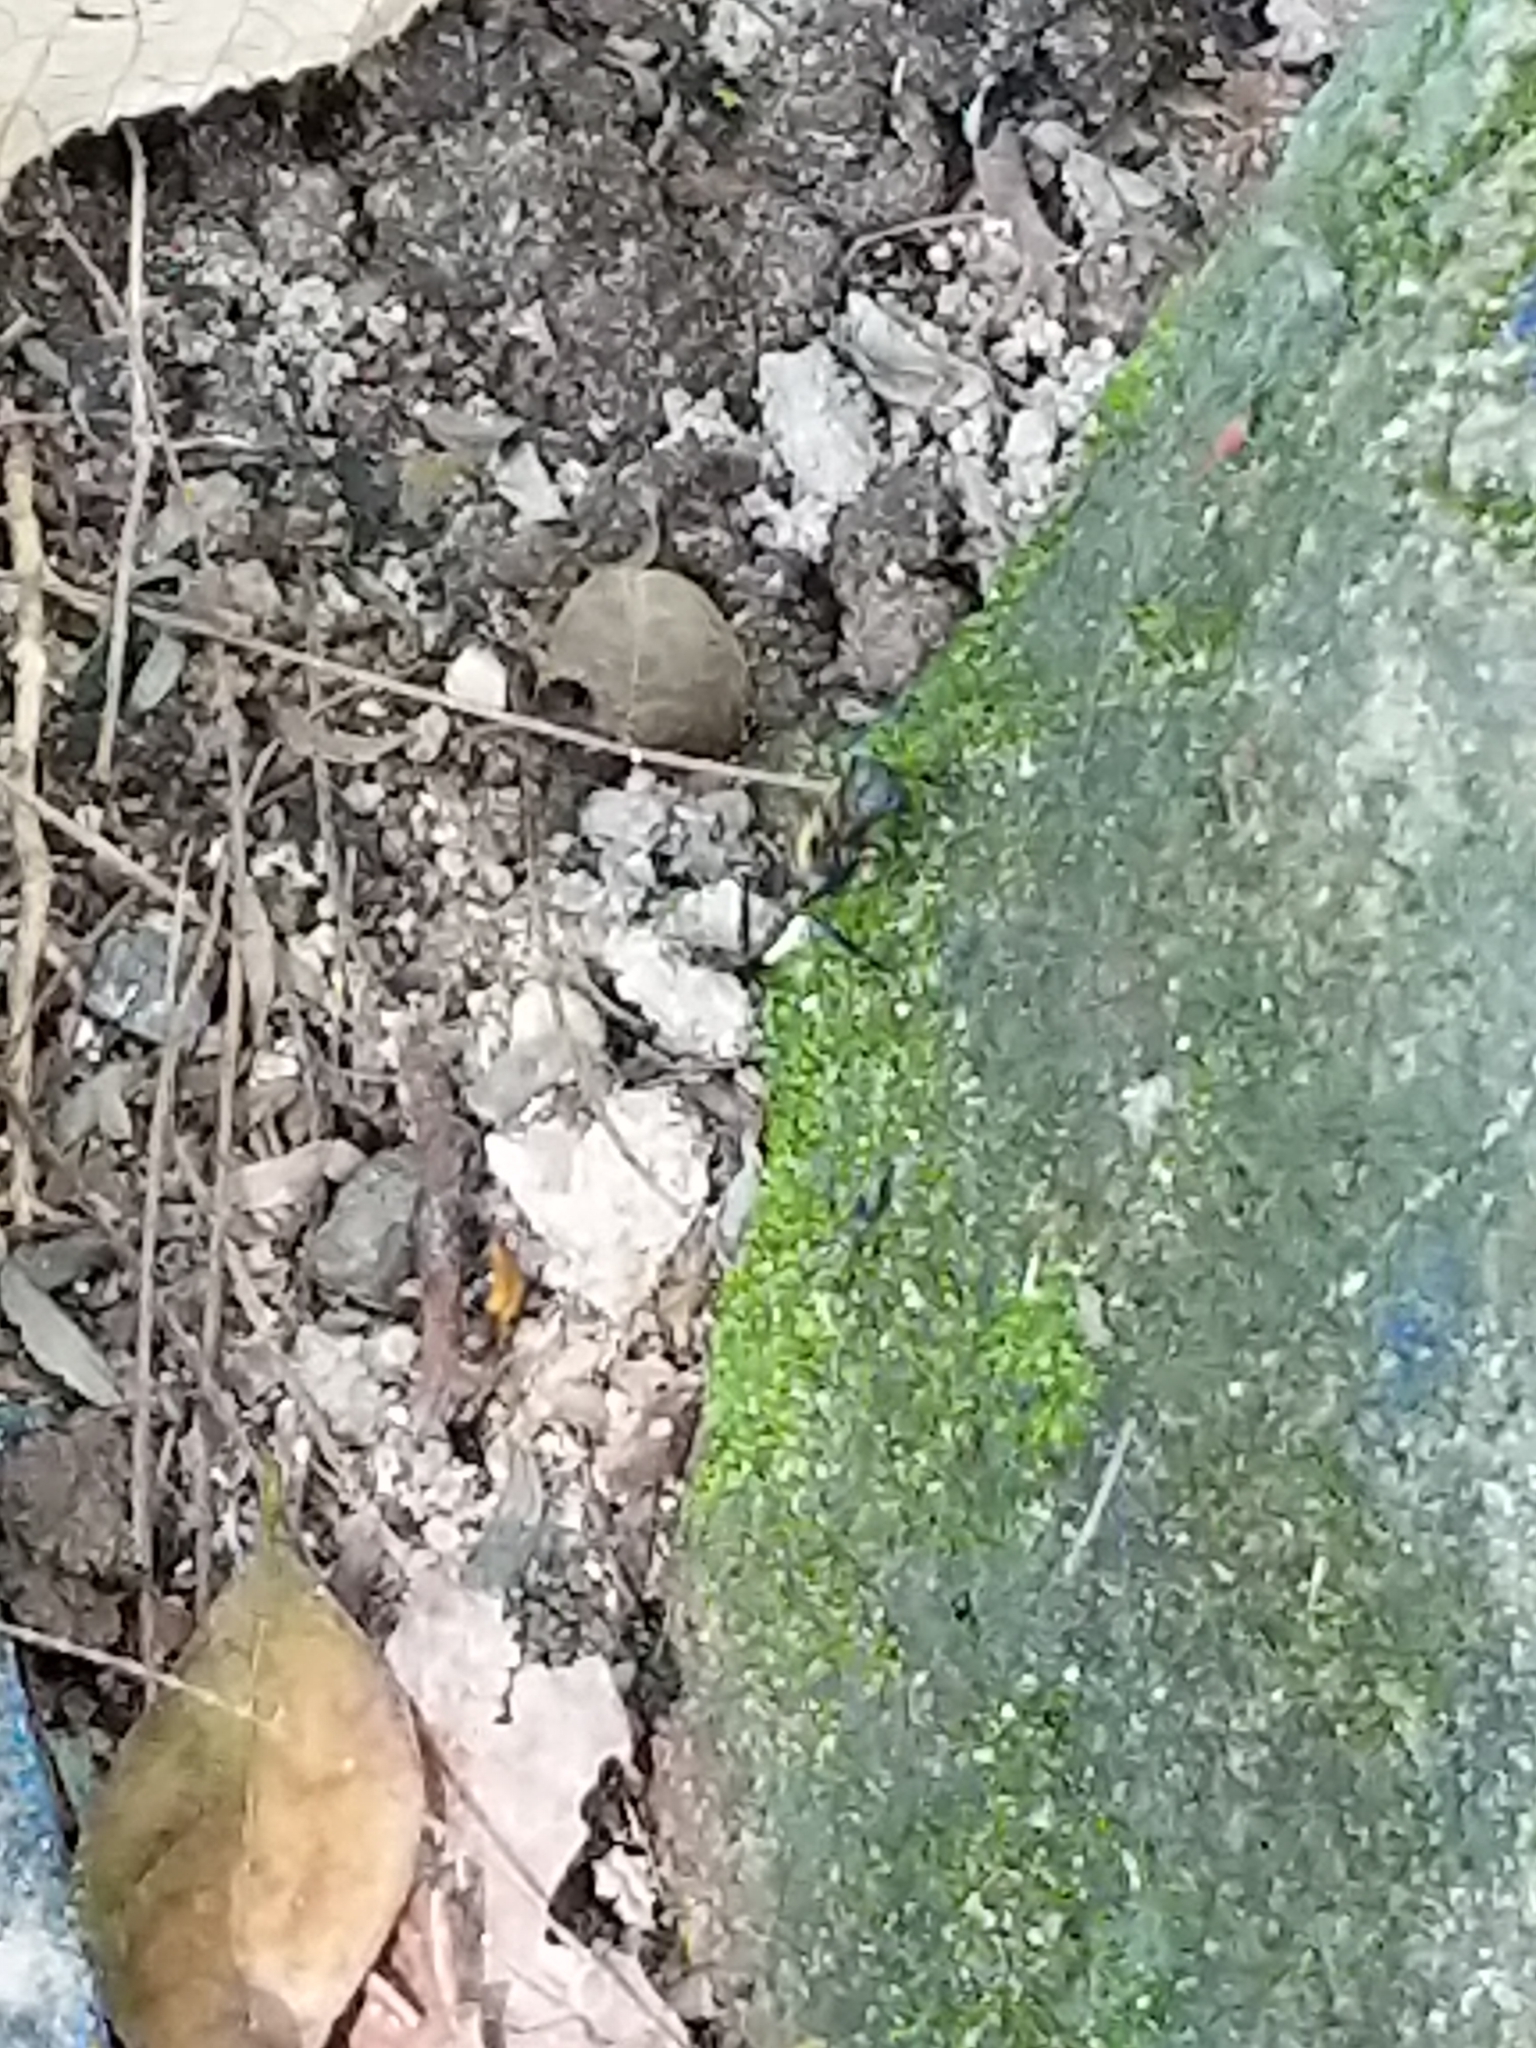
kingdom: Animalia
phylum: Arthropoda
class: Insecta
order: Hymenoptera
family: Formicidae
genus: Camponotus
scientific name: Camponotus sericeiventris
